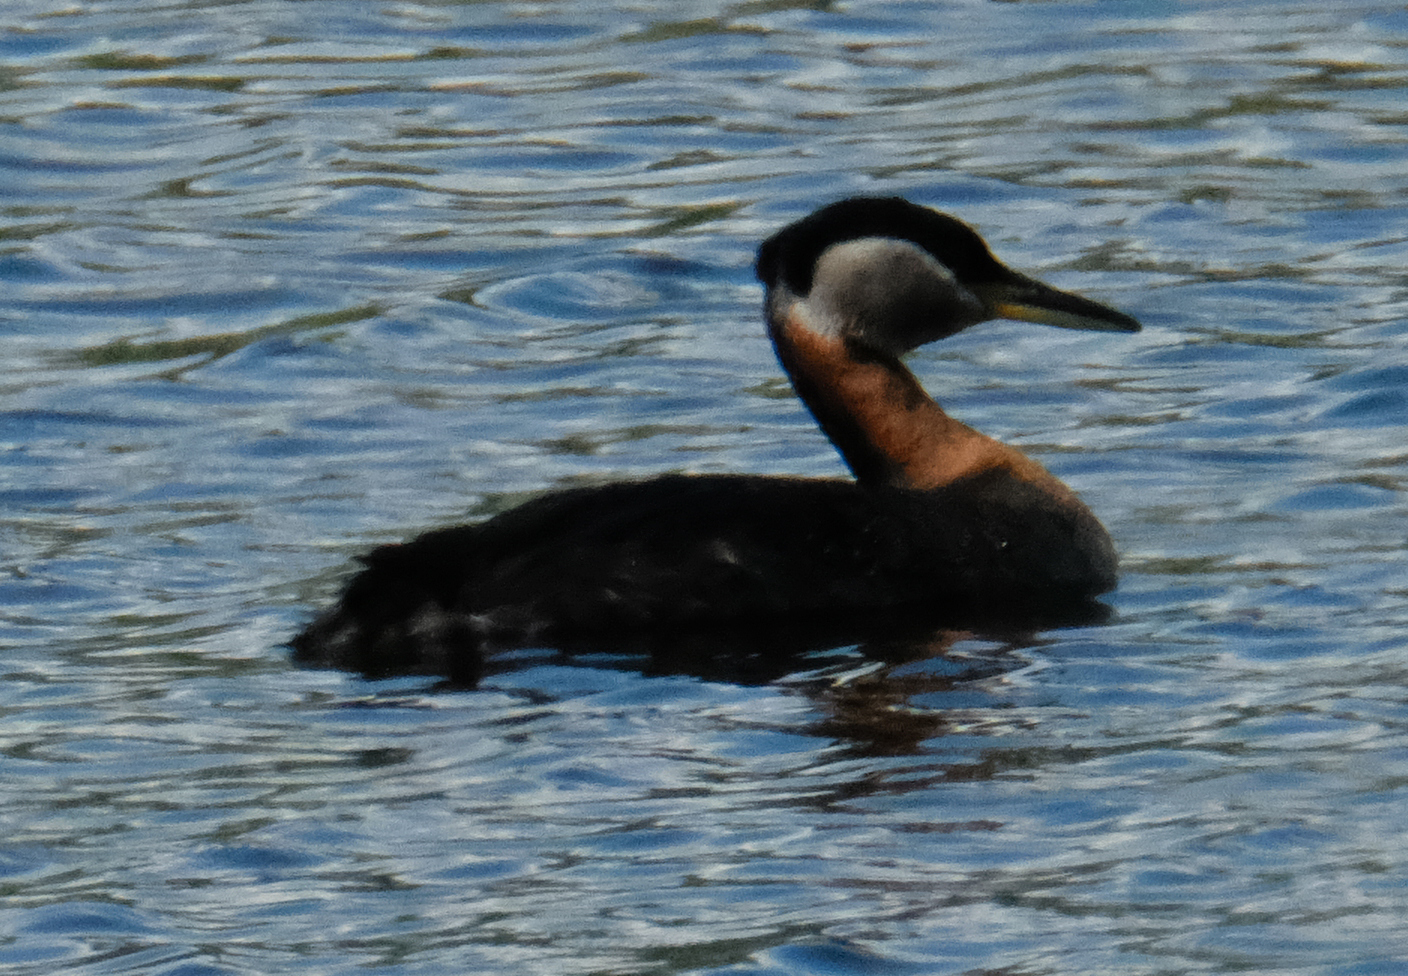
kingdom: Animalia
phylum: Chordata
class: Aves
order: Podicipediformes
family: Podicipedidae
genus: Podiceps
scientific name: Podiceps grisegena
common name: Red-necked grebe
